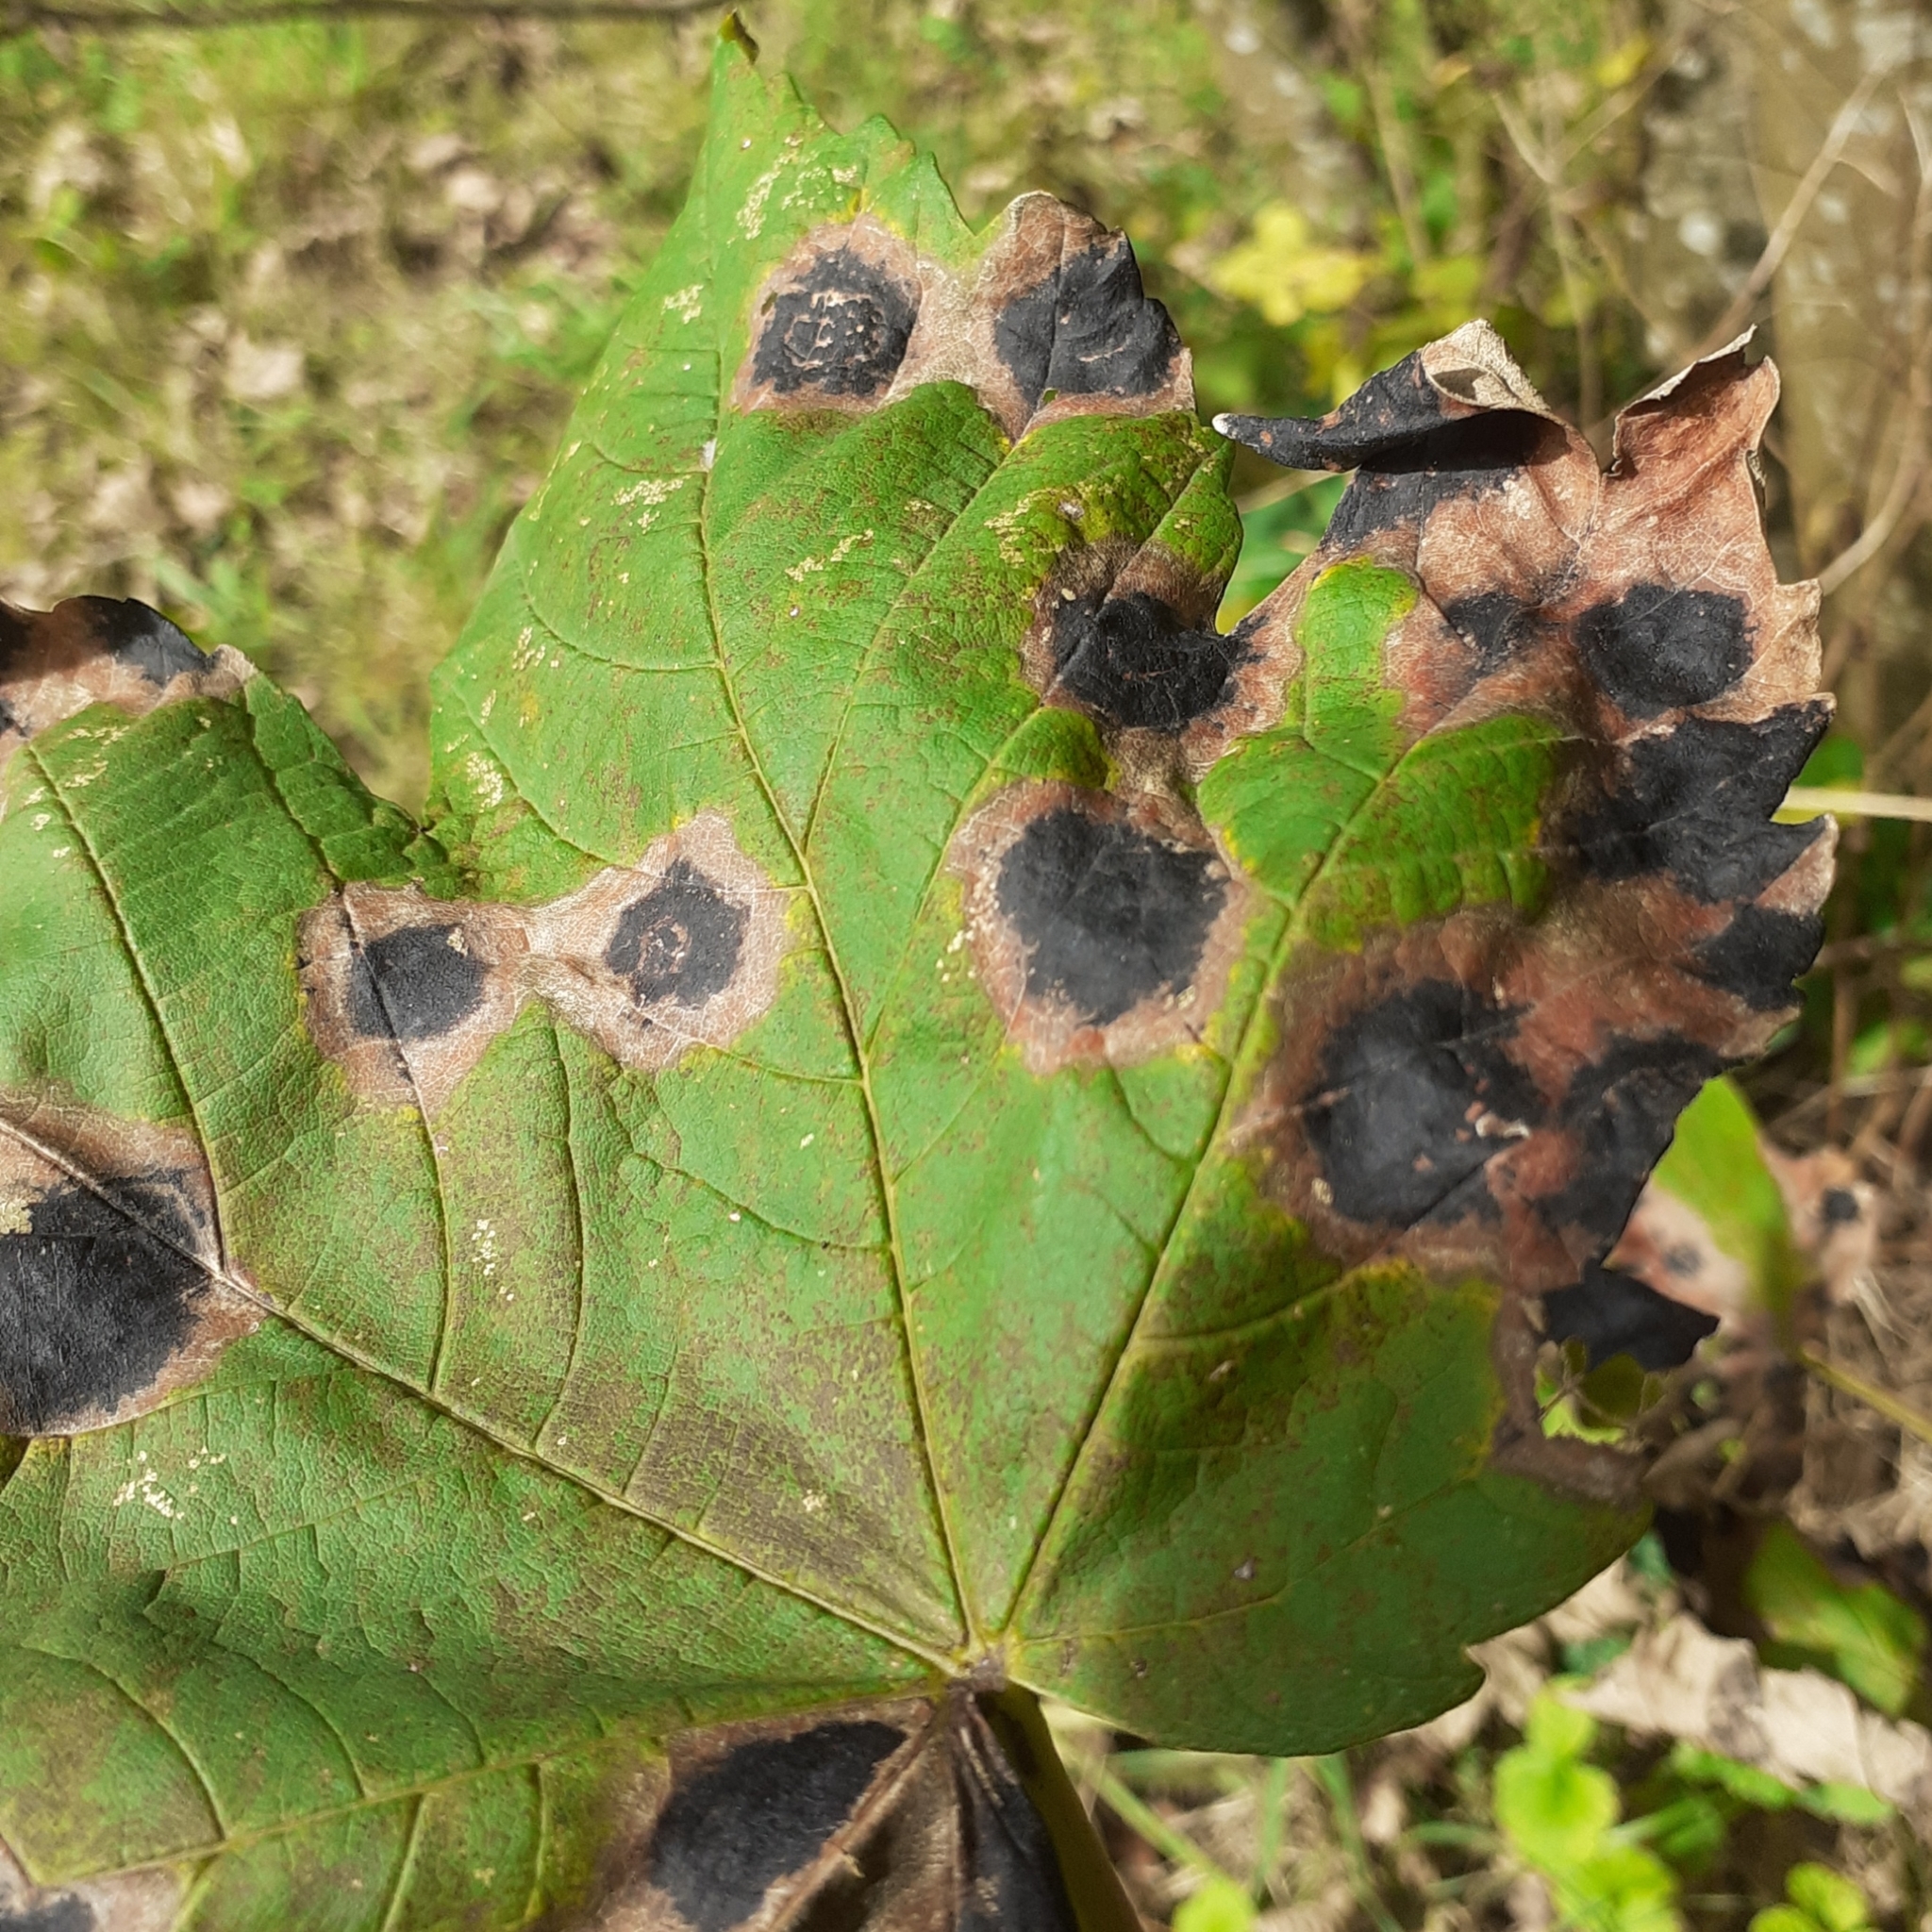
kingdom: Fungi
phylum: Ascomycota
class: Leotiomycetes
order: Rhytismatales
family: Rhytismataceae
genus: Rhytisma
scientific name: Rhytisma acerinum
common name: European tar spot
